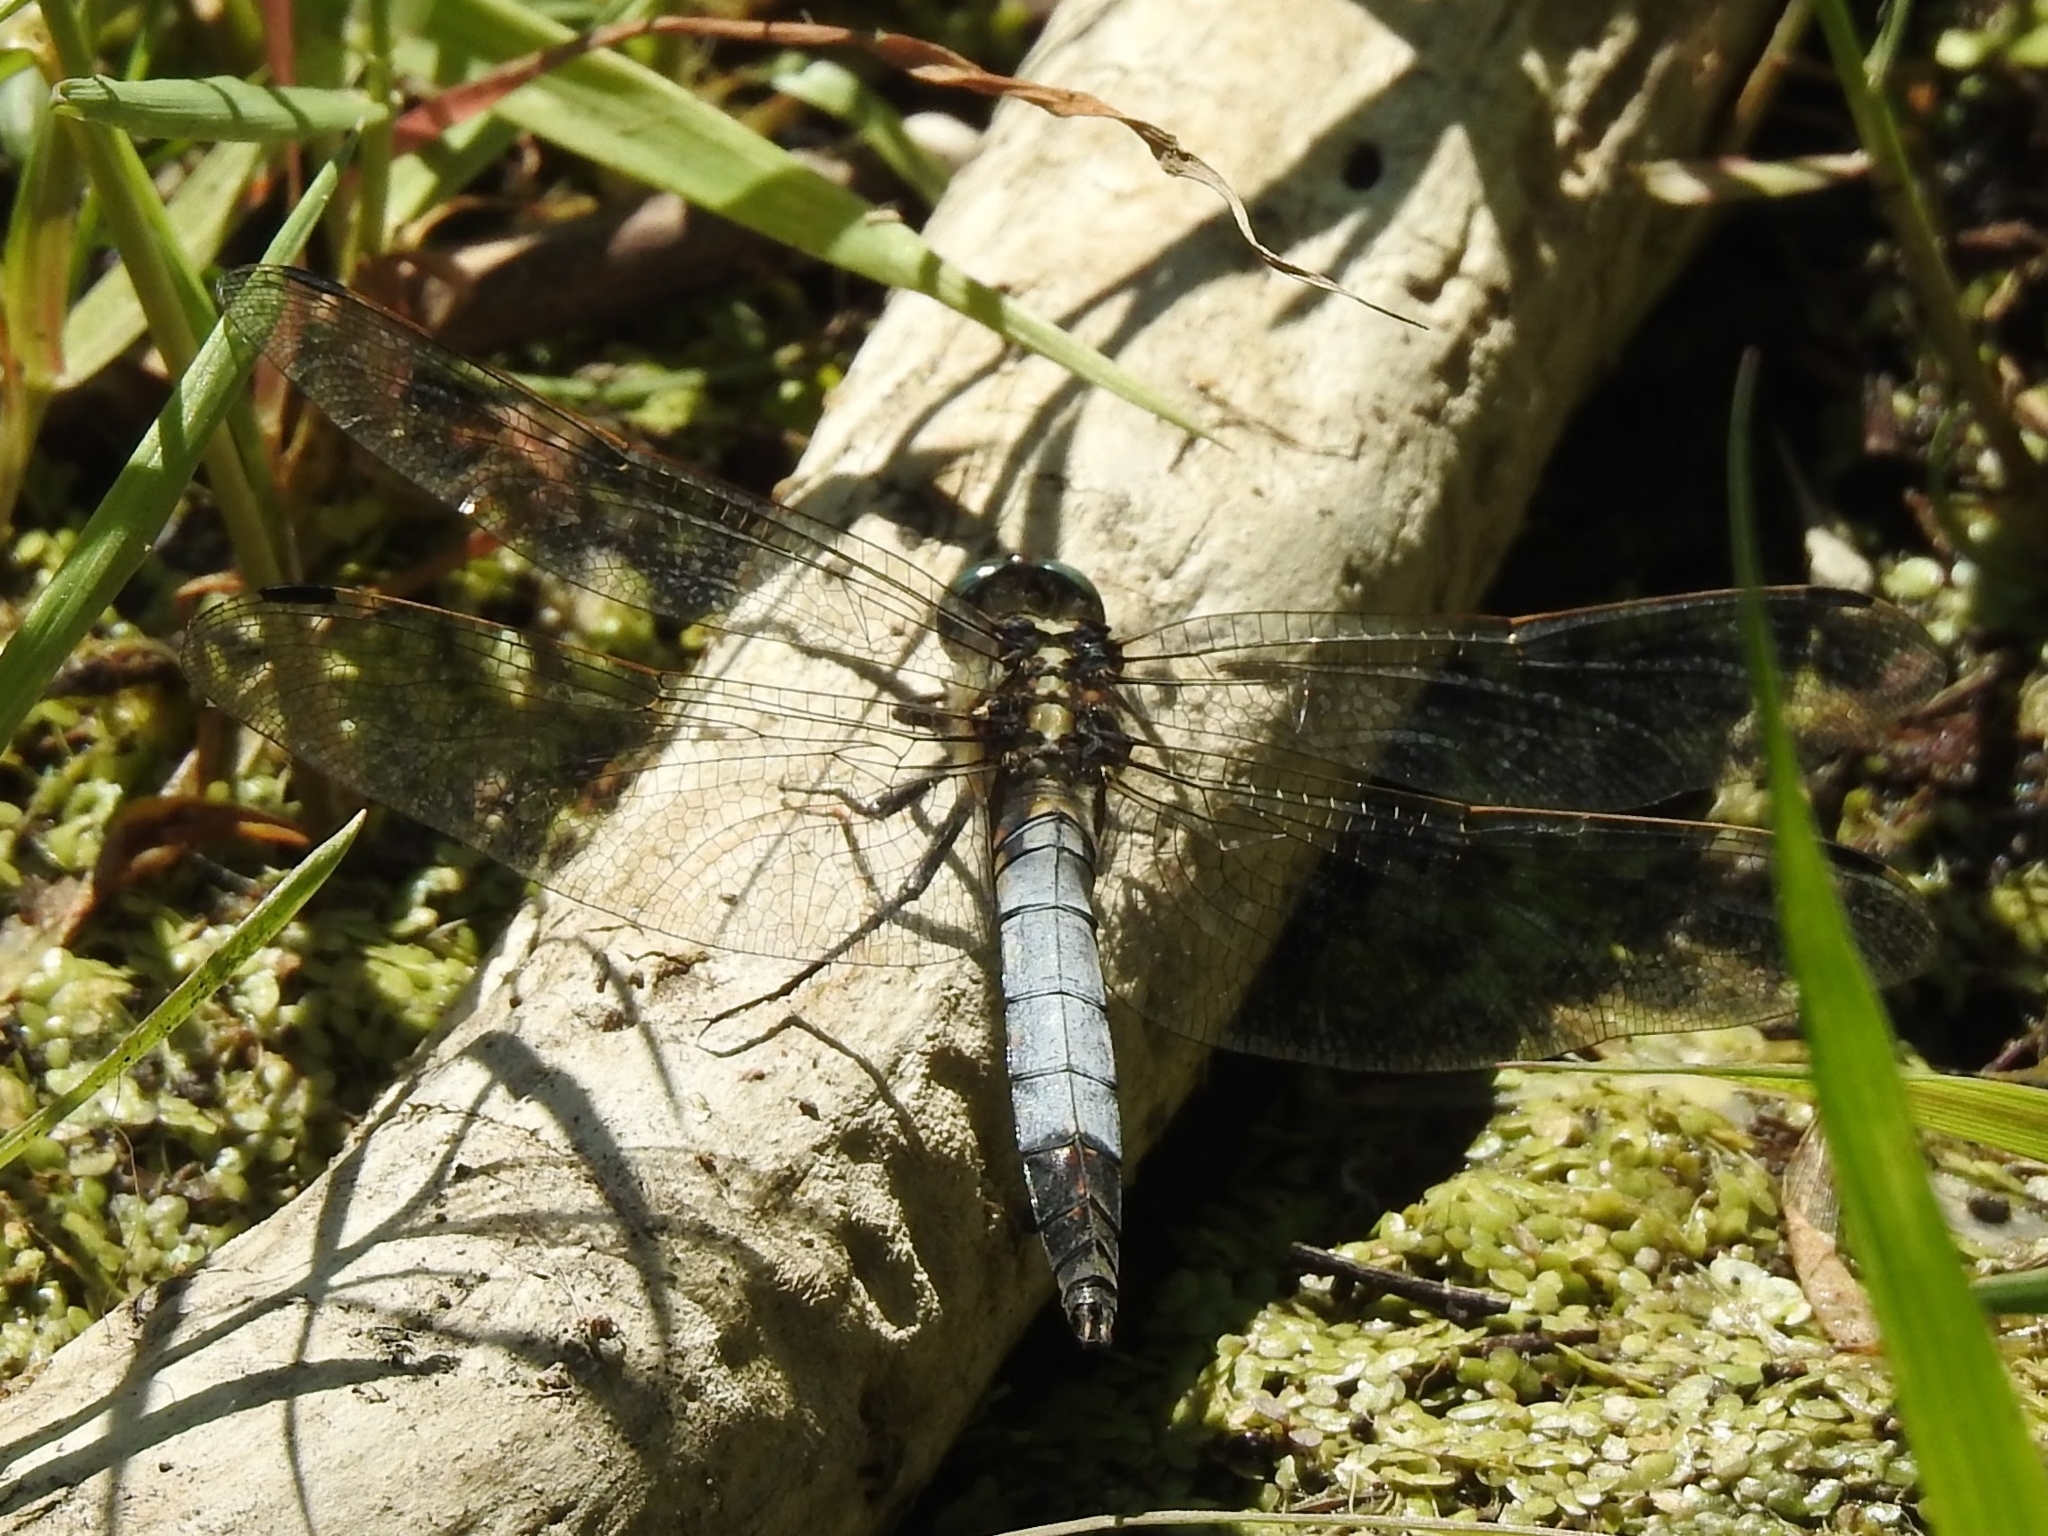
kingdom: Animalia
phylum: Arthropoda
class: Insecta
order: Odonata
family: Libellulidae
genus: Orthetrum
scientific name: Orthetrum albistylum
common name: White-tailed skimmer
